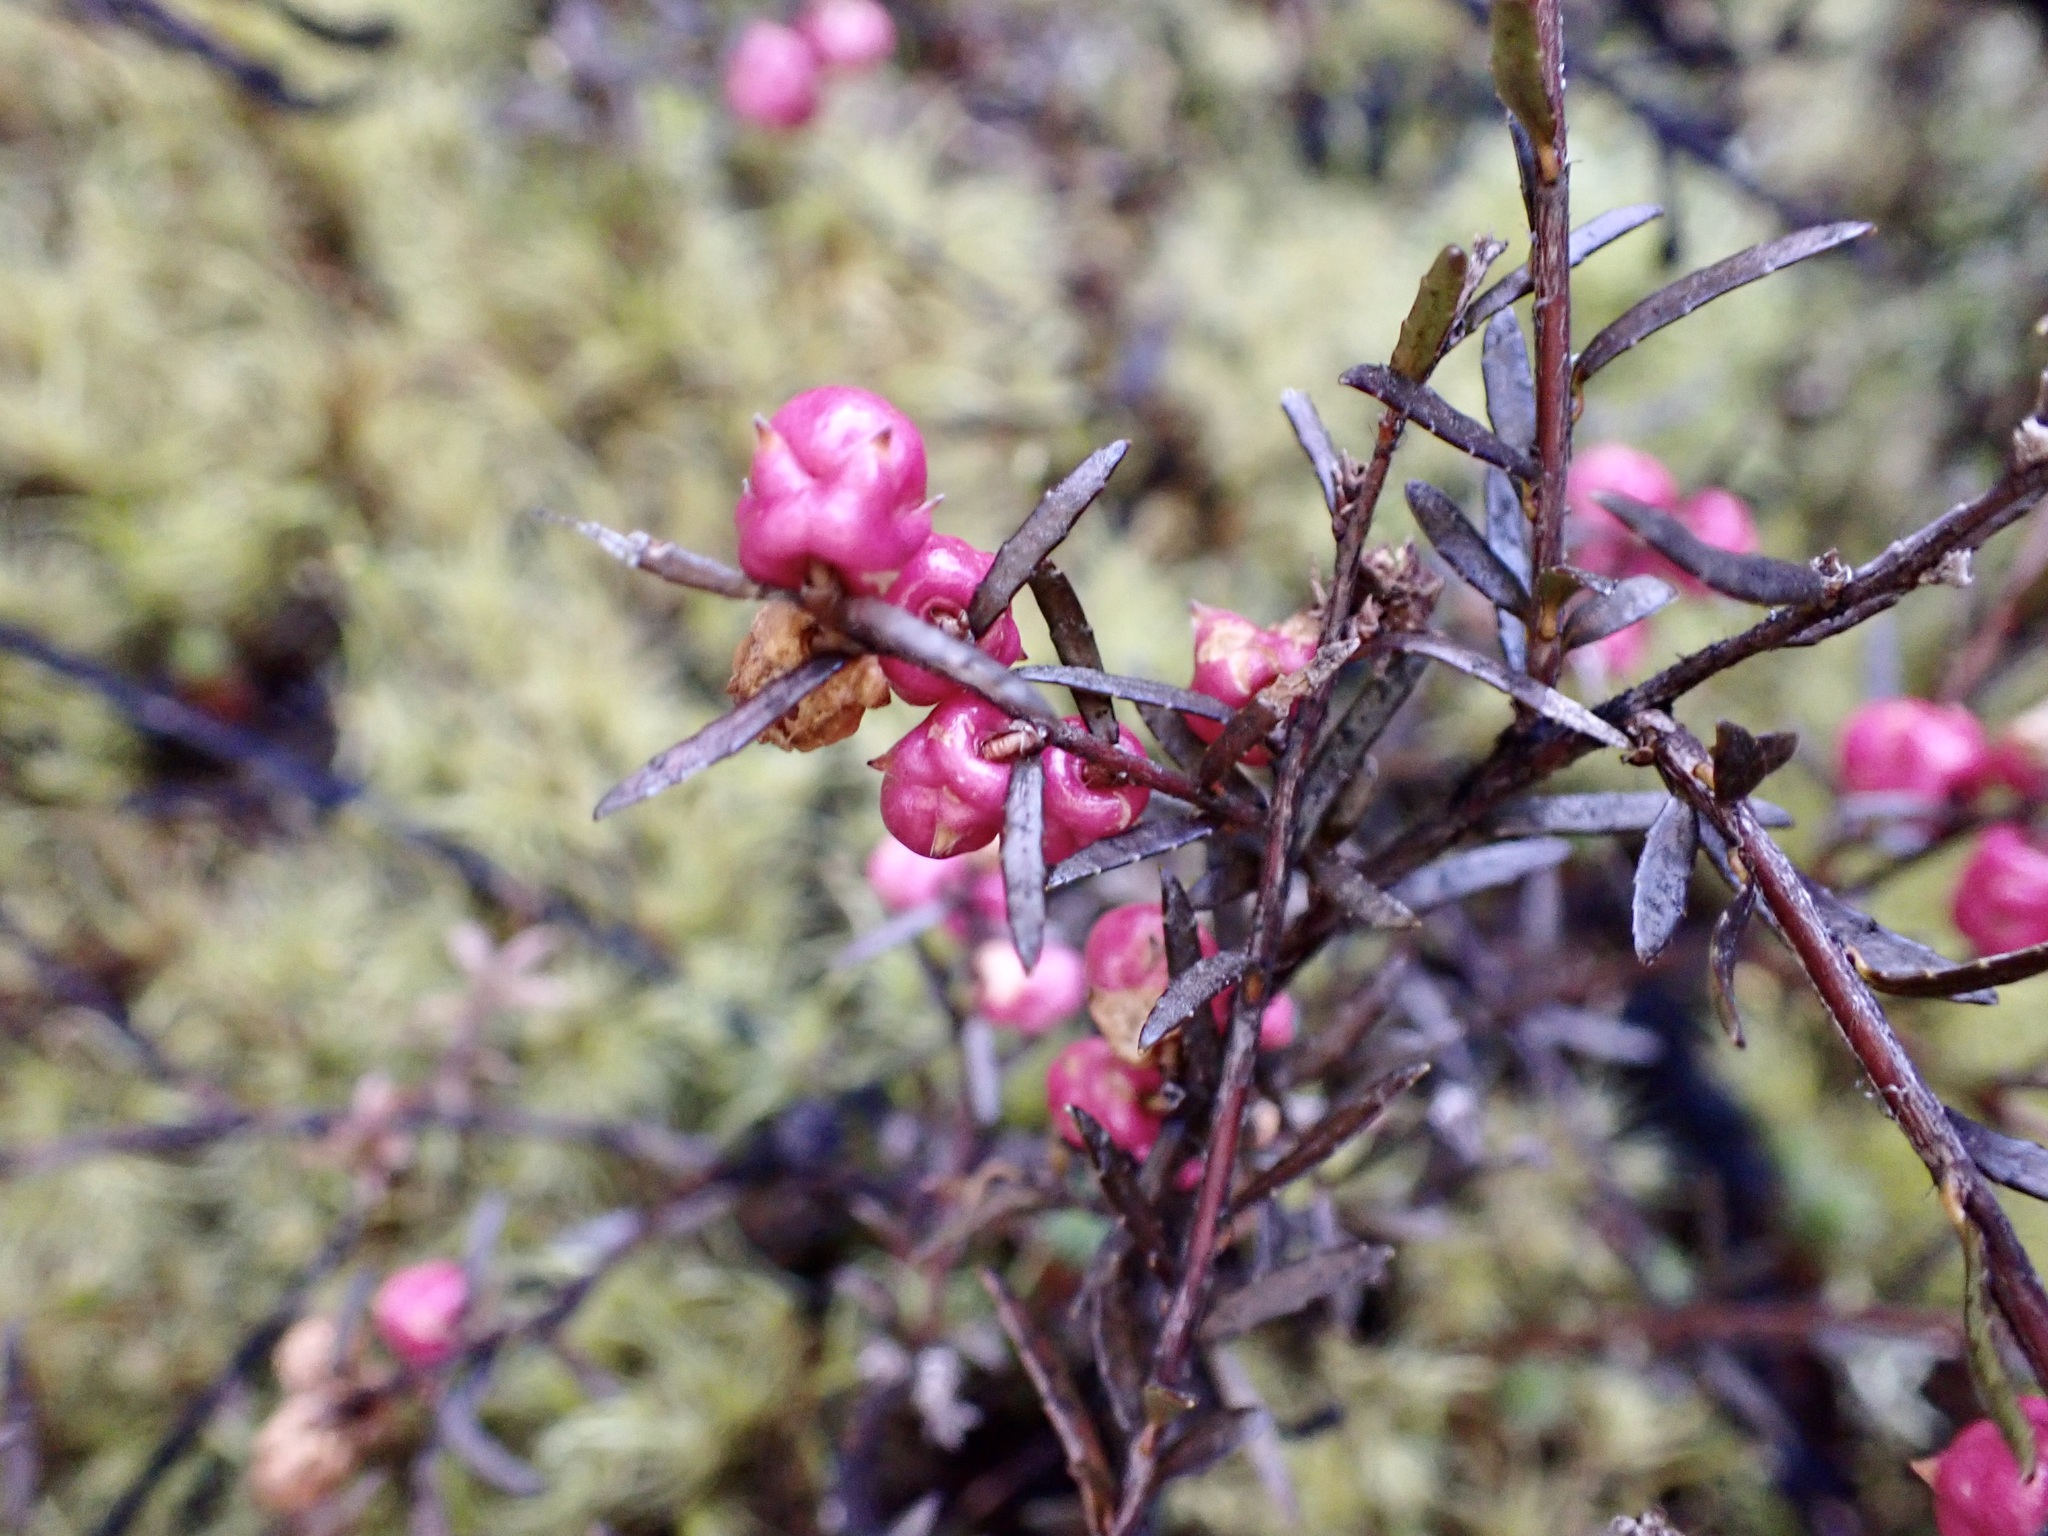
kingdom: Plantae
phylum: Tracheophyta
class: Magnoliopsida
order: Ericales
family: Ericaceae
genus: Gaultheria
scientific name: Gaultheria macrostigma
